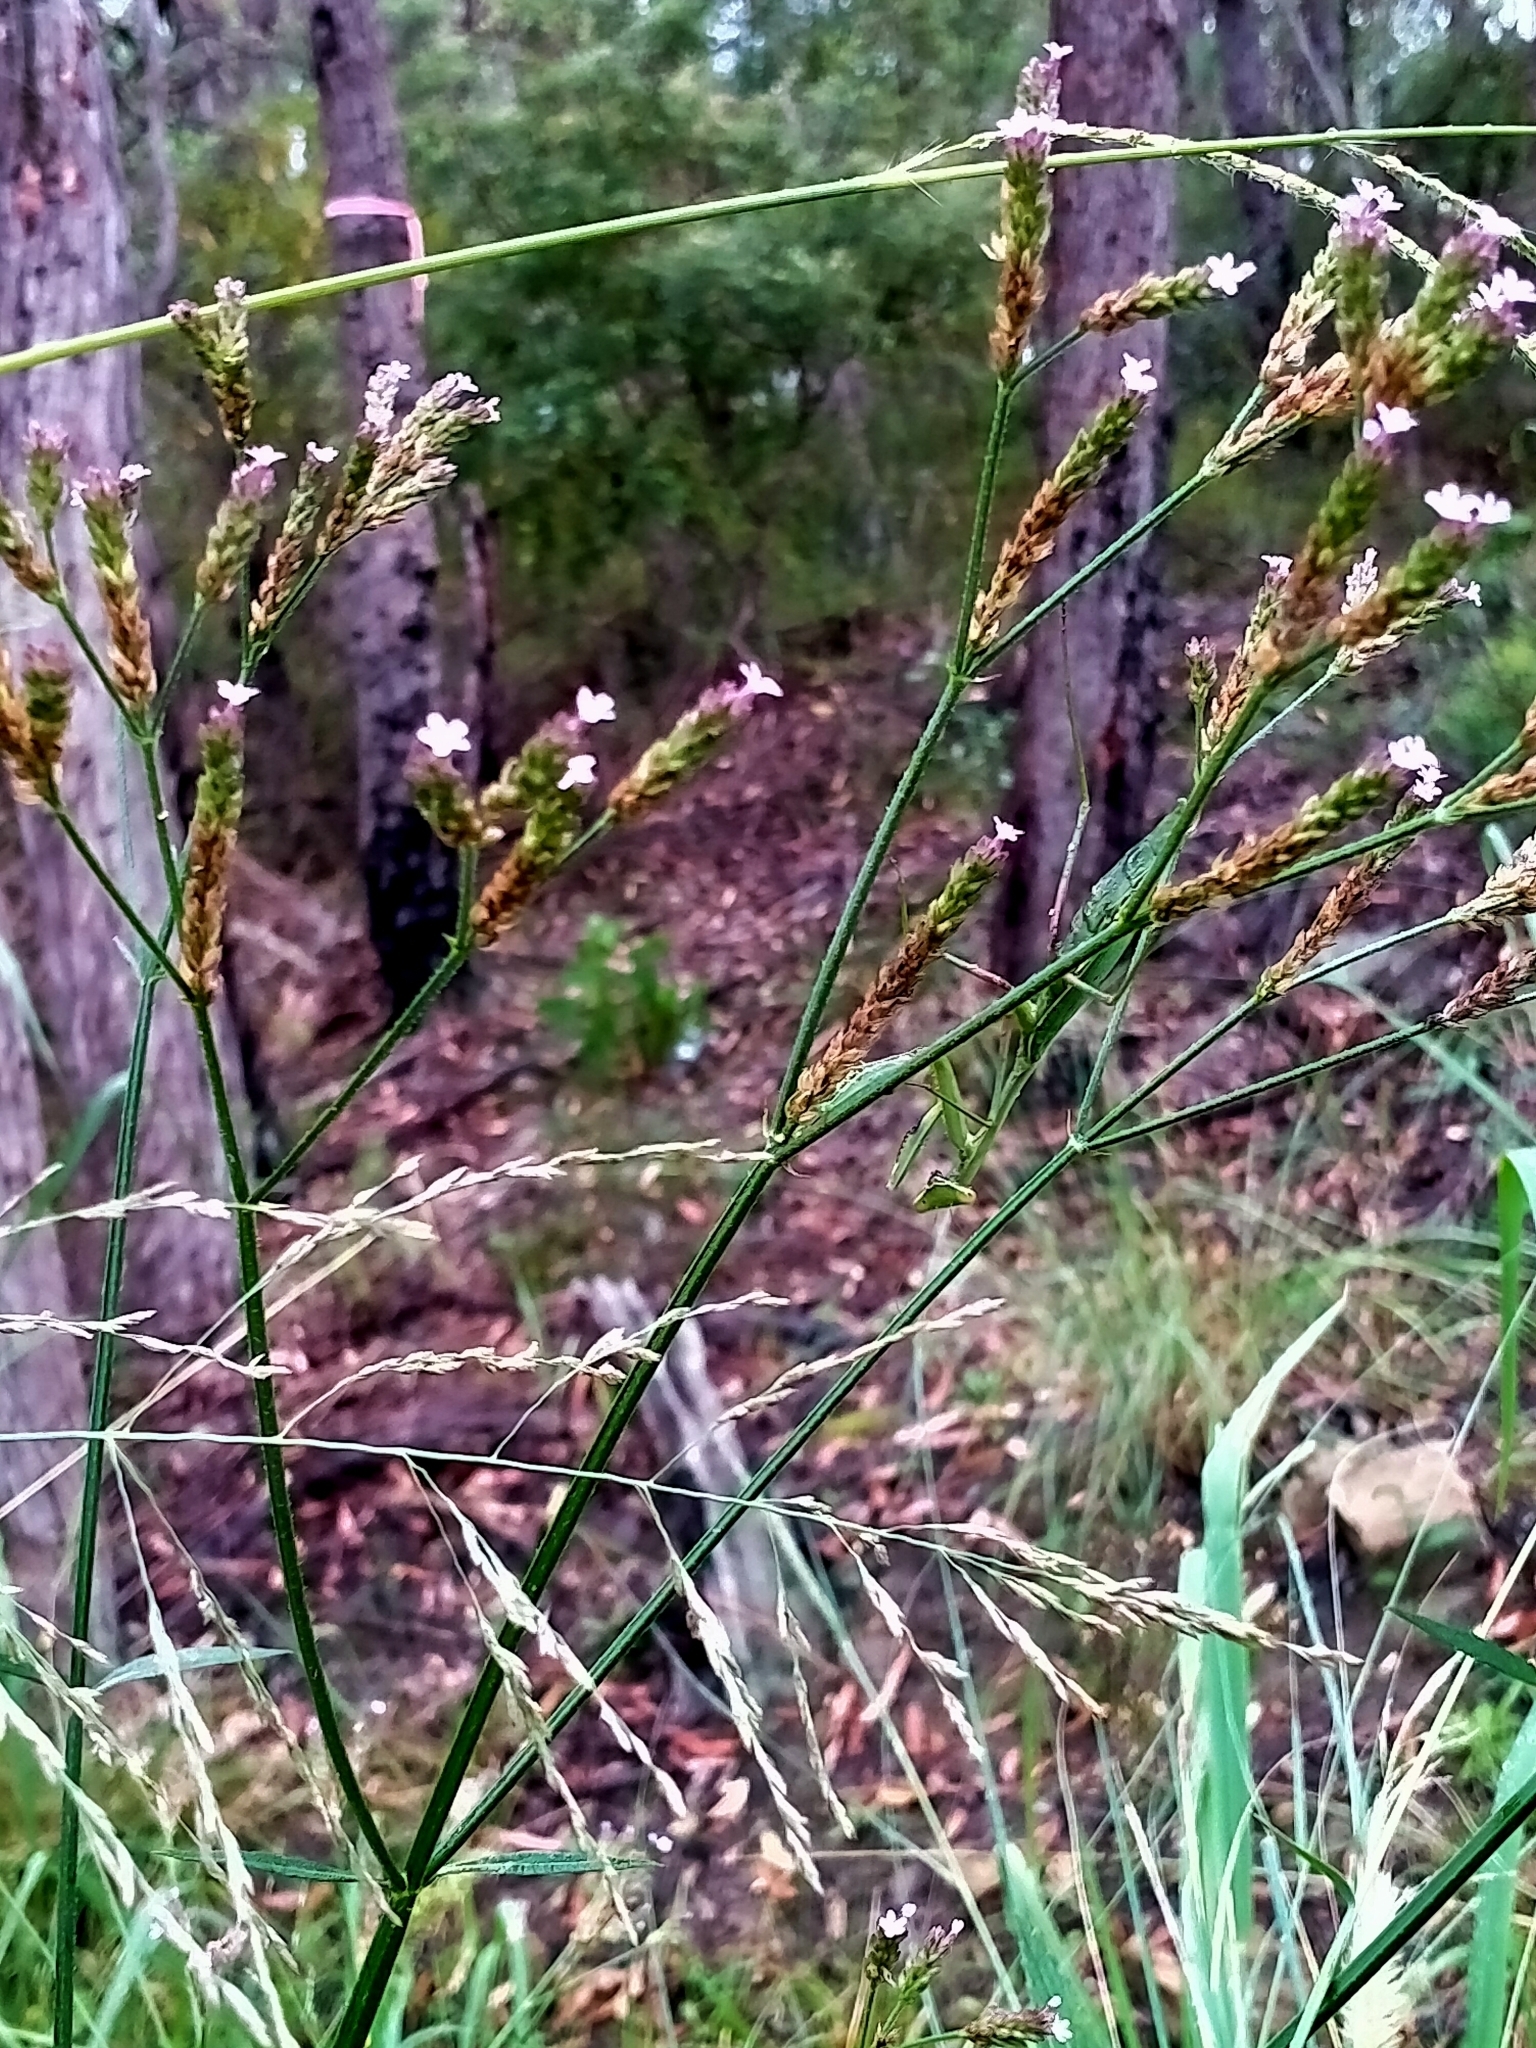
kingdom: Animalia
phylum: Arthropoda
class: Insecta
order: Mantodea
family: Mantidae
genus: Pseudomantis
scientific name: Pseudomantis albofimbriata
